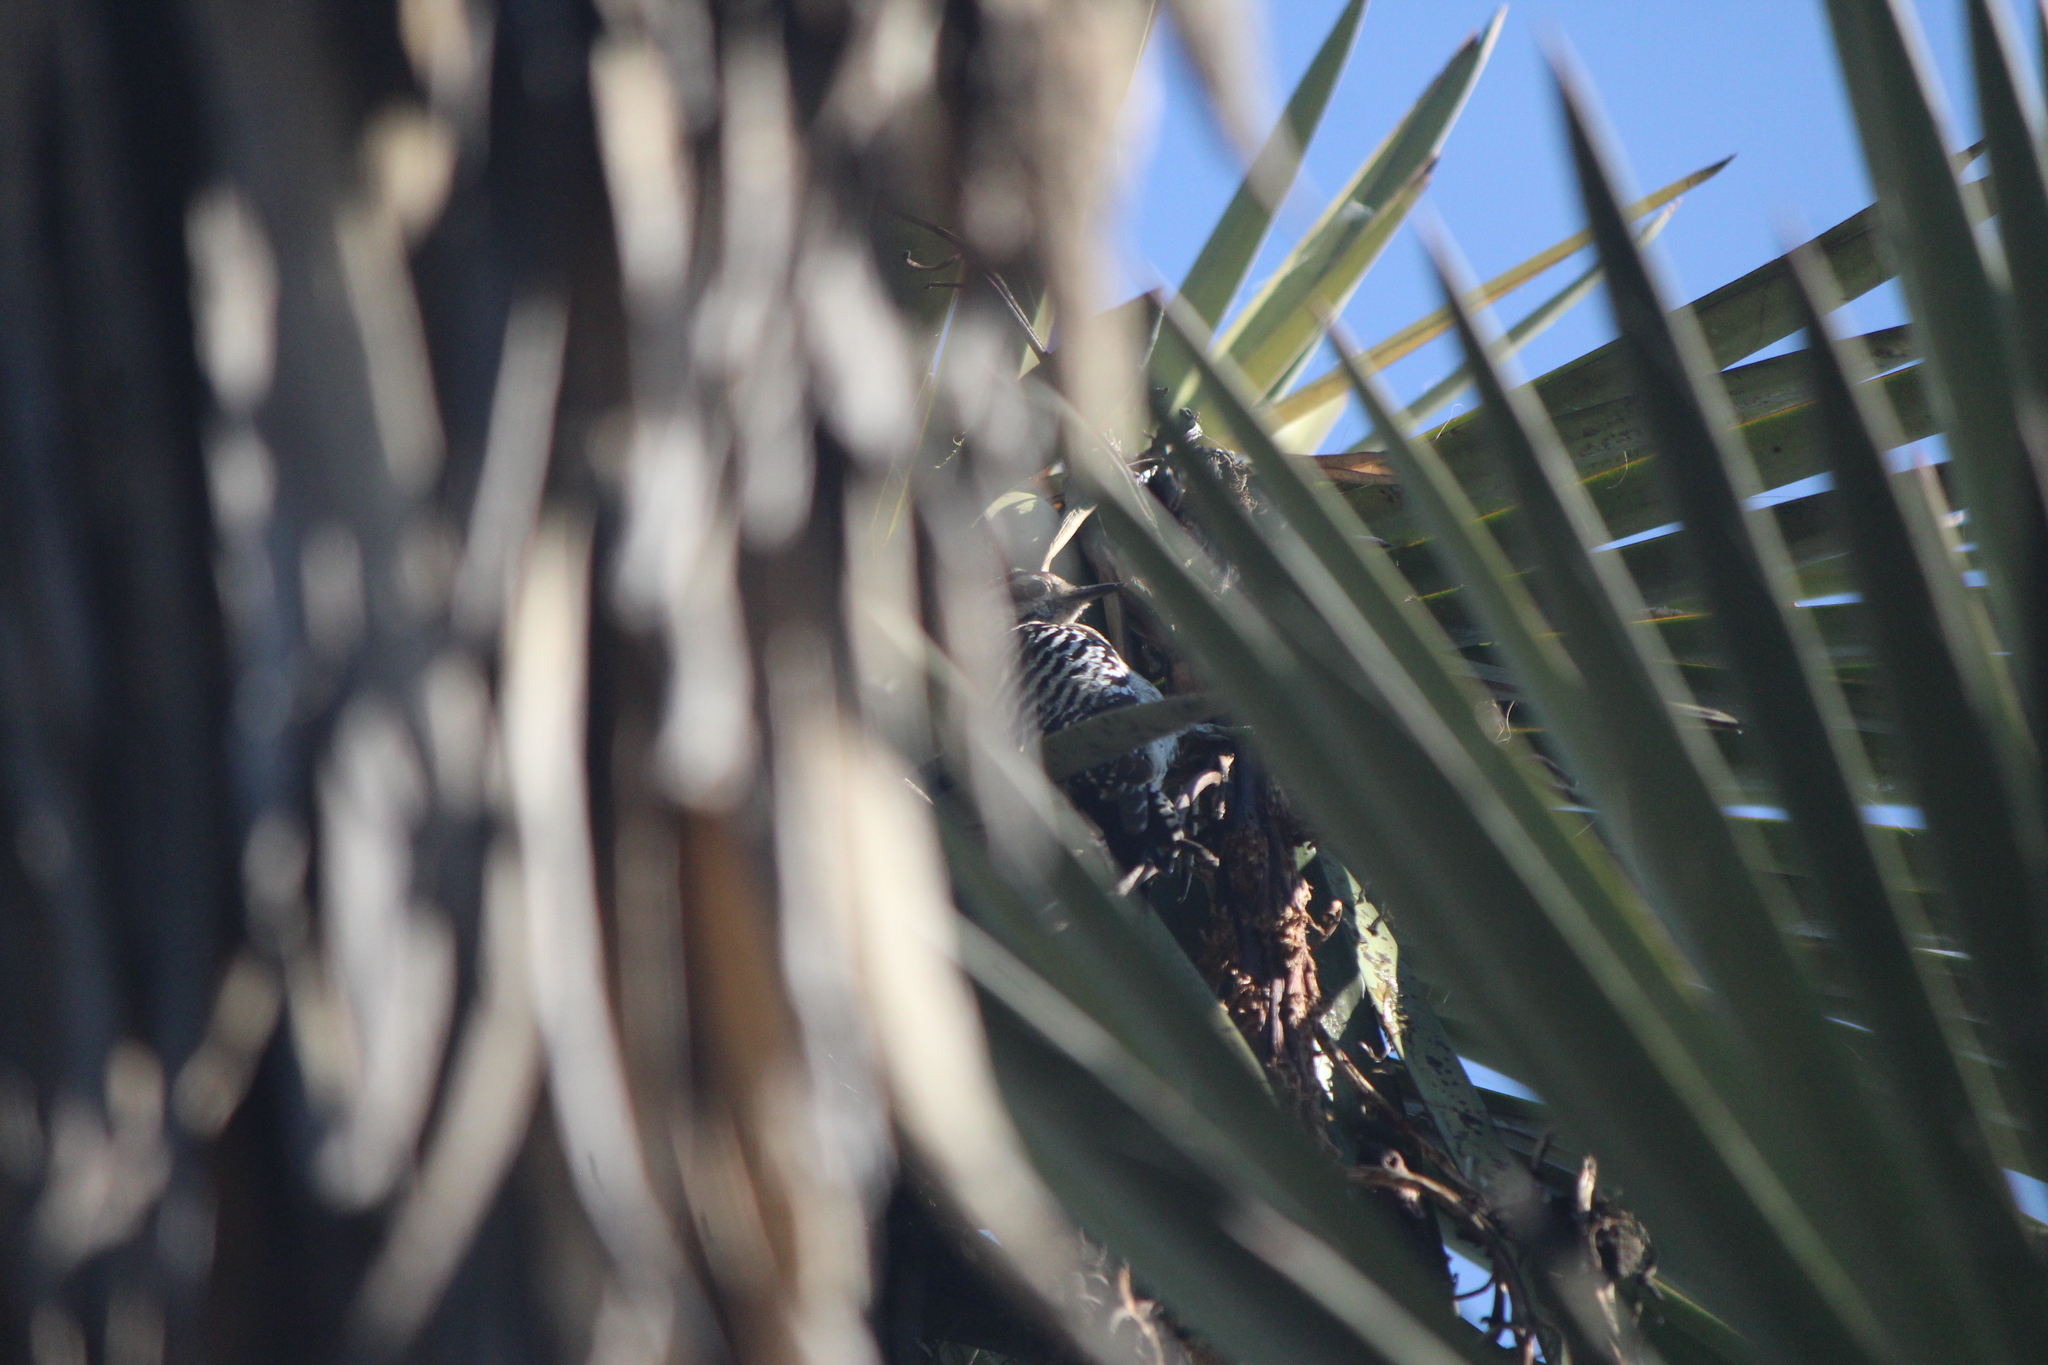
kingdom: Animalia
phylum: Chordata
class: Aves
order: Piciformes
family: Picidae
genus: Dryobates
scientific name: Dryobates scalaris
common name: Ladder-backed woodpecker
